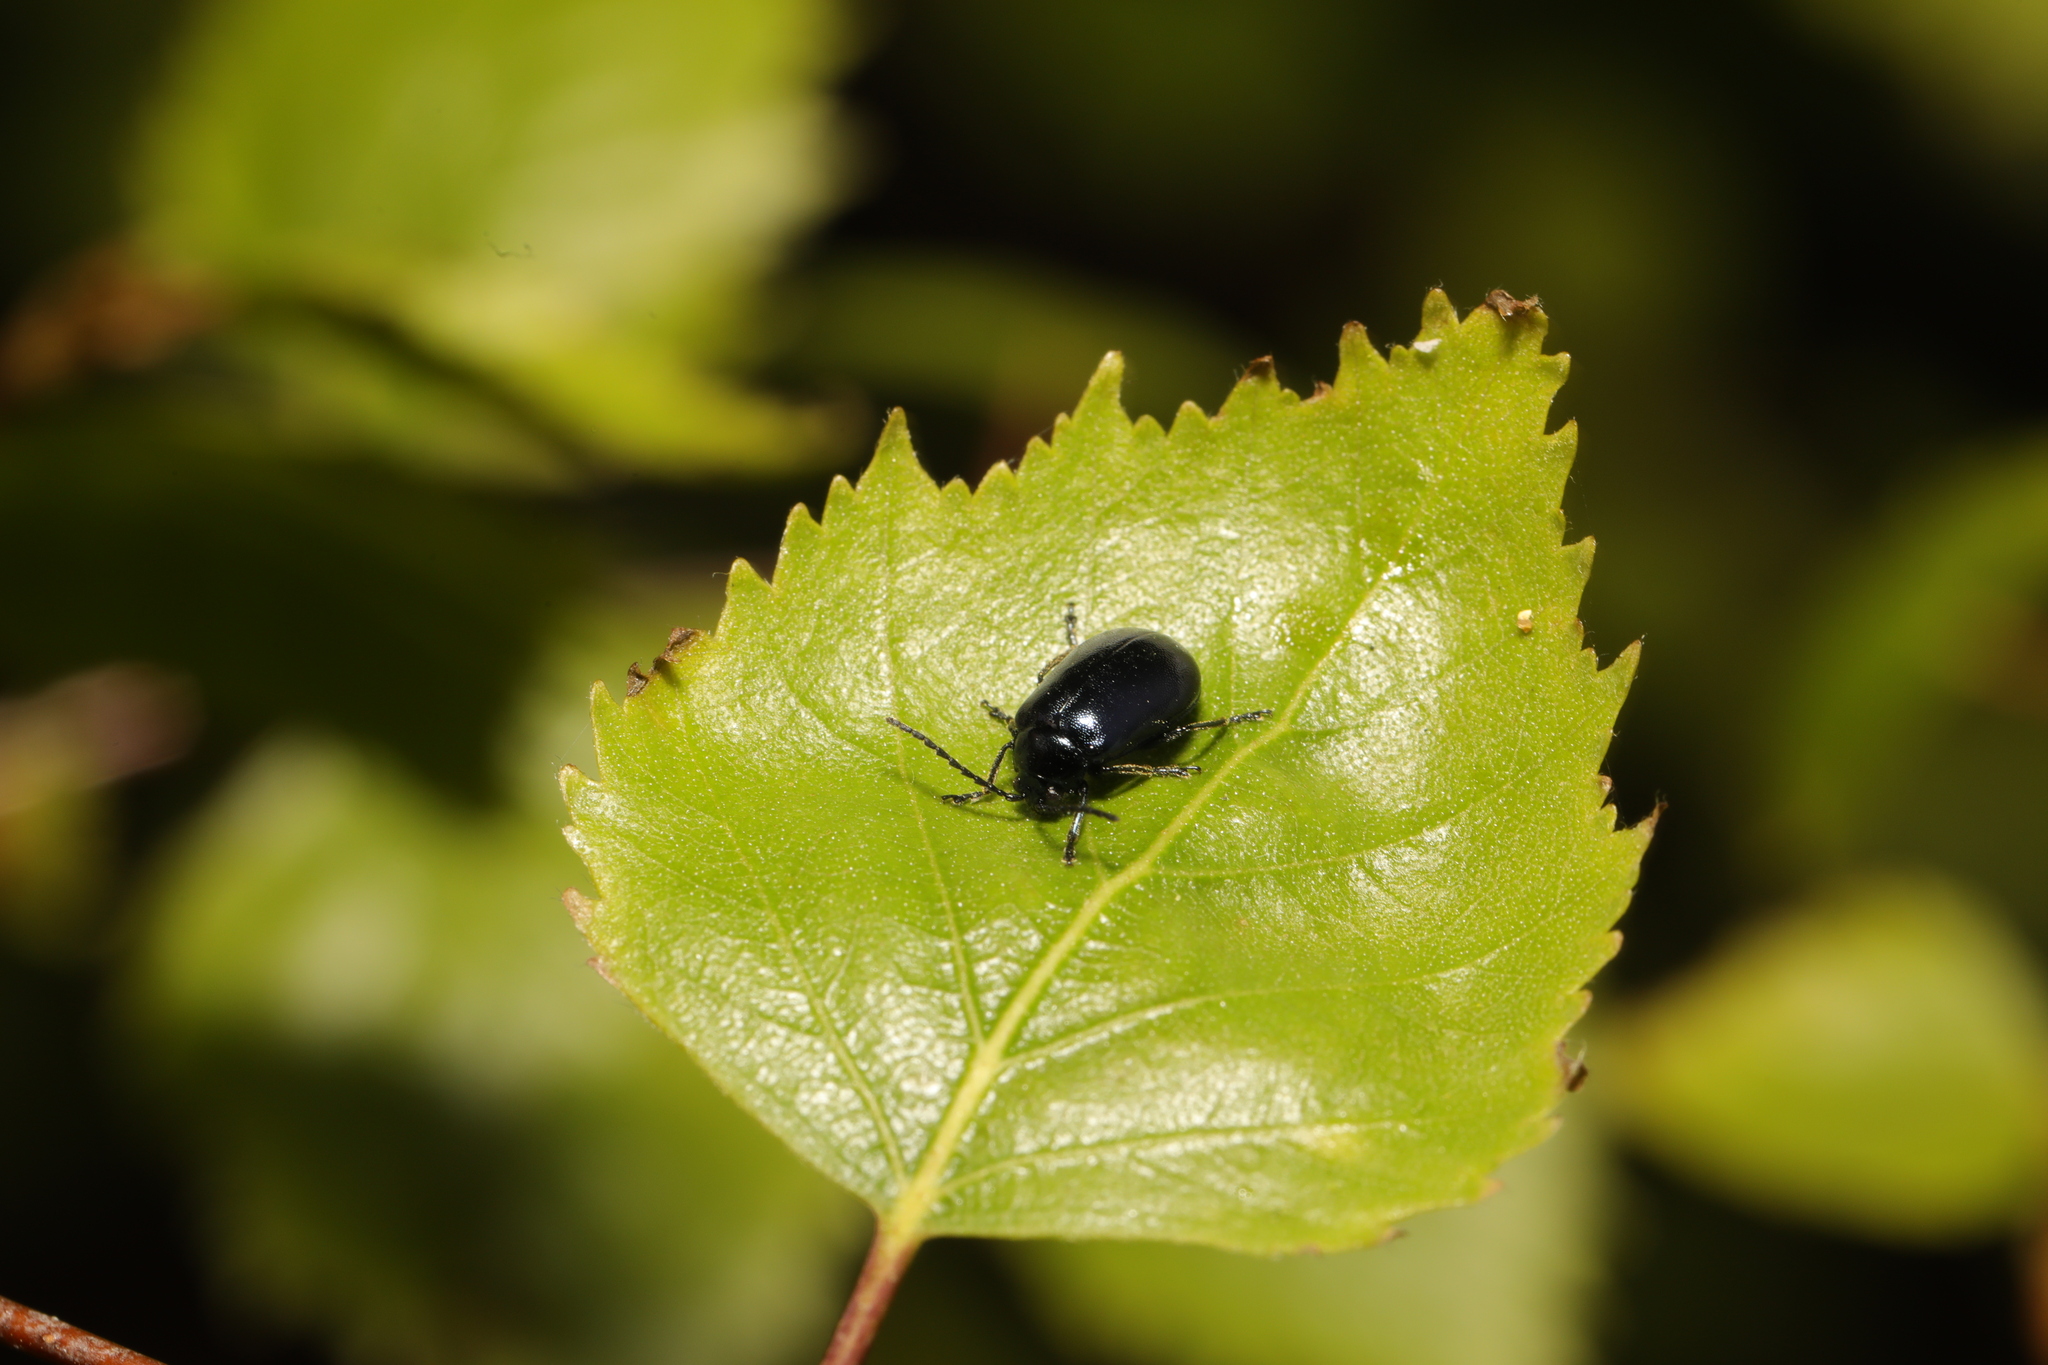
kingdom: Animalia
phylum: Arthropoda
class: Insecta
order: Coleoptera
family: Chrysomelidae
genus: Agelastica
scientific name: Agelastica alni
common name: Alder leaf beetle
